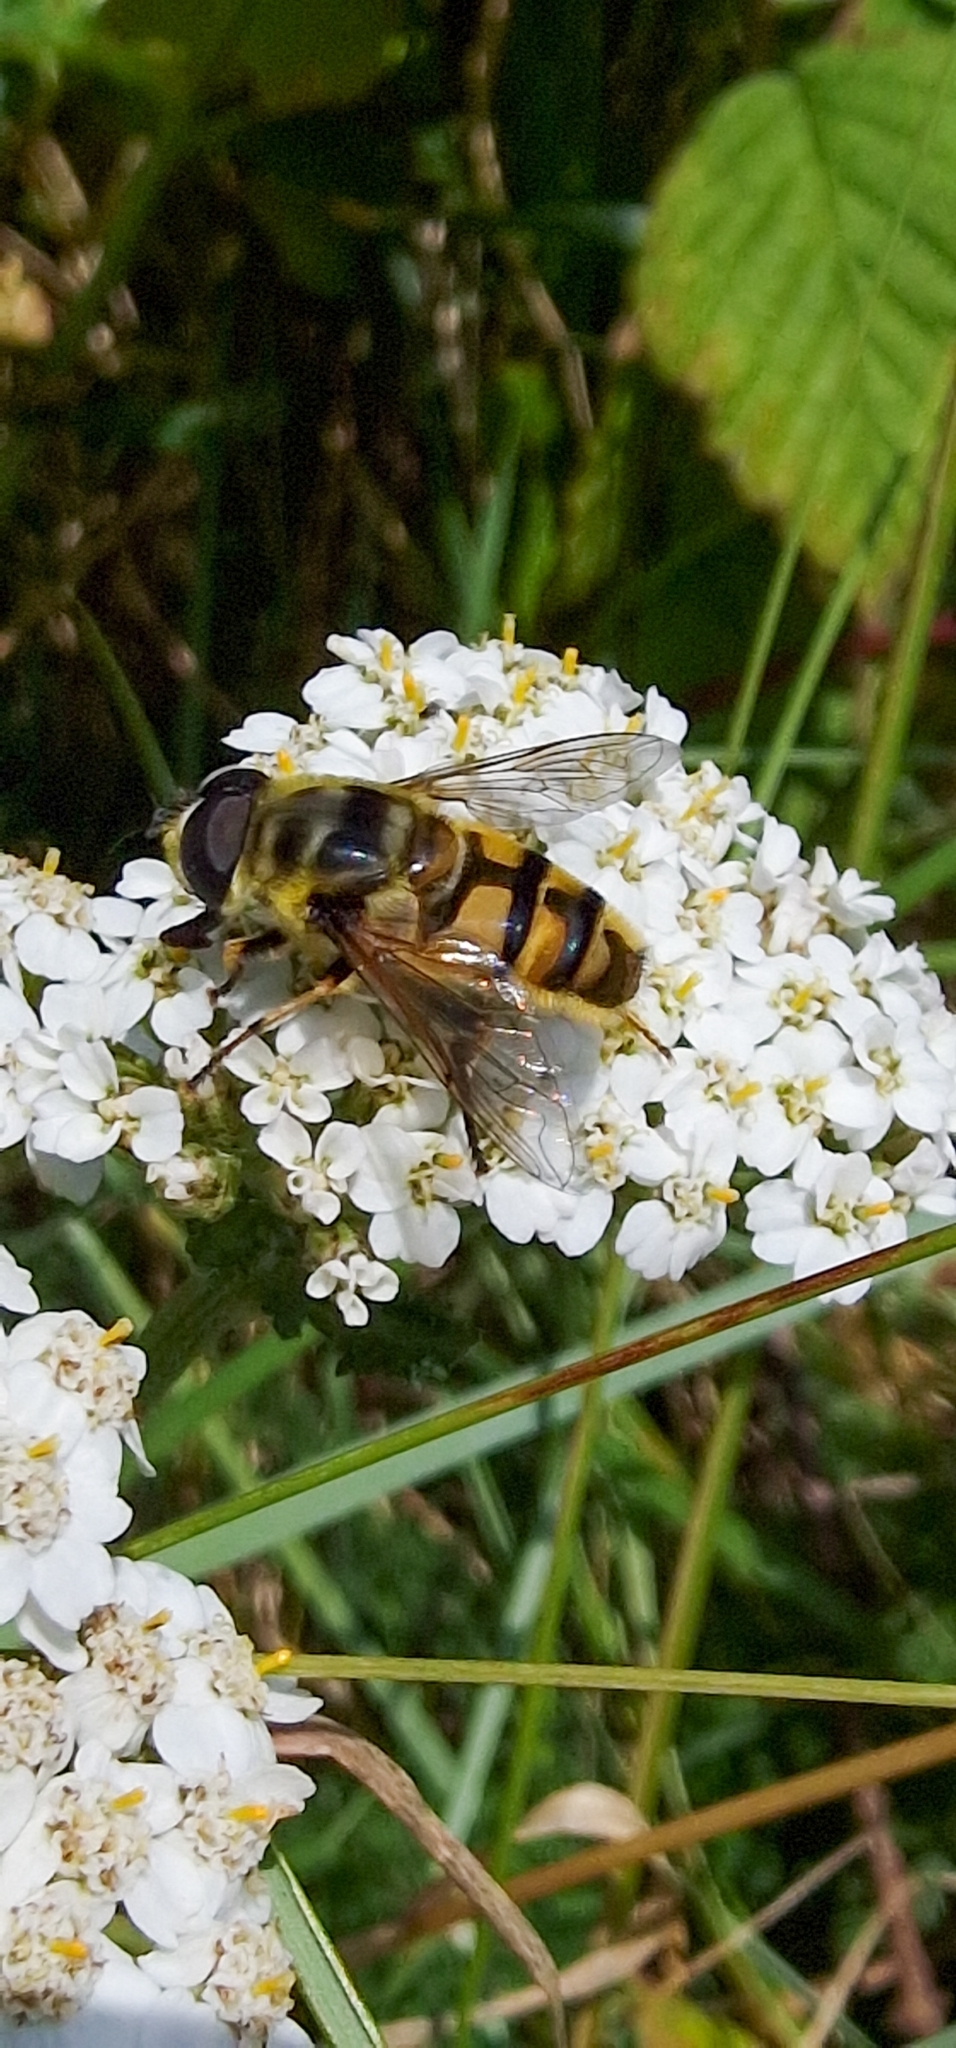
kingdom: Animalia
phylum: Arthropoda
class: Insecta
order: Diptera
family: Syrphidae
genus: Myathropa
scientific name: Myathropa florea
